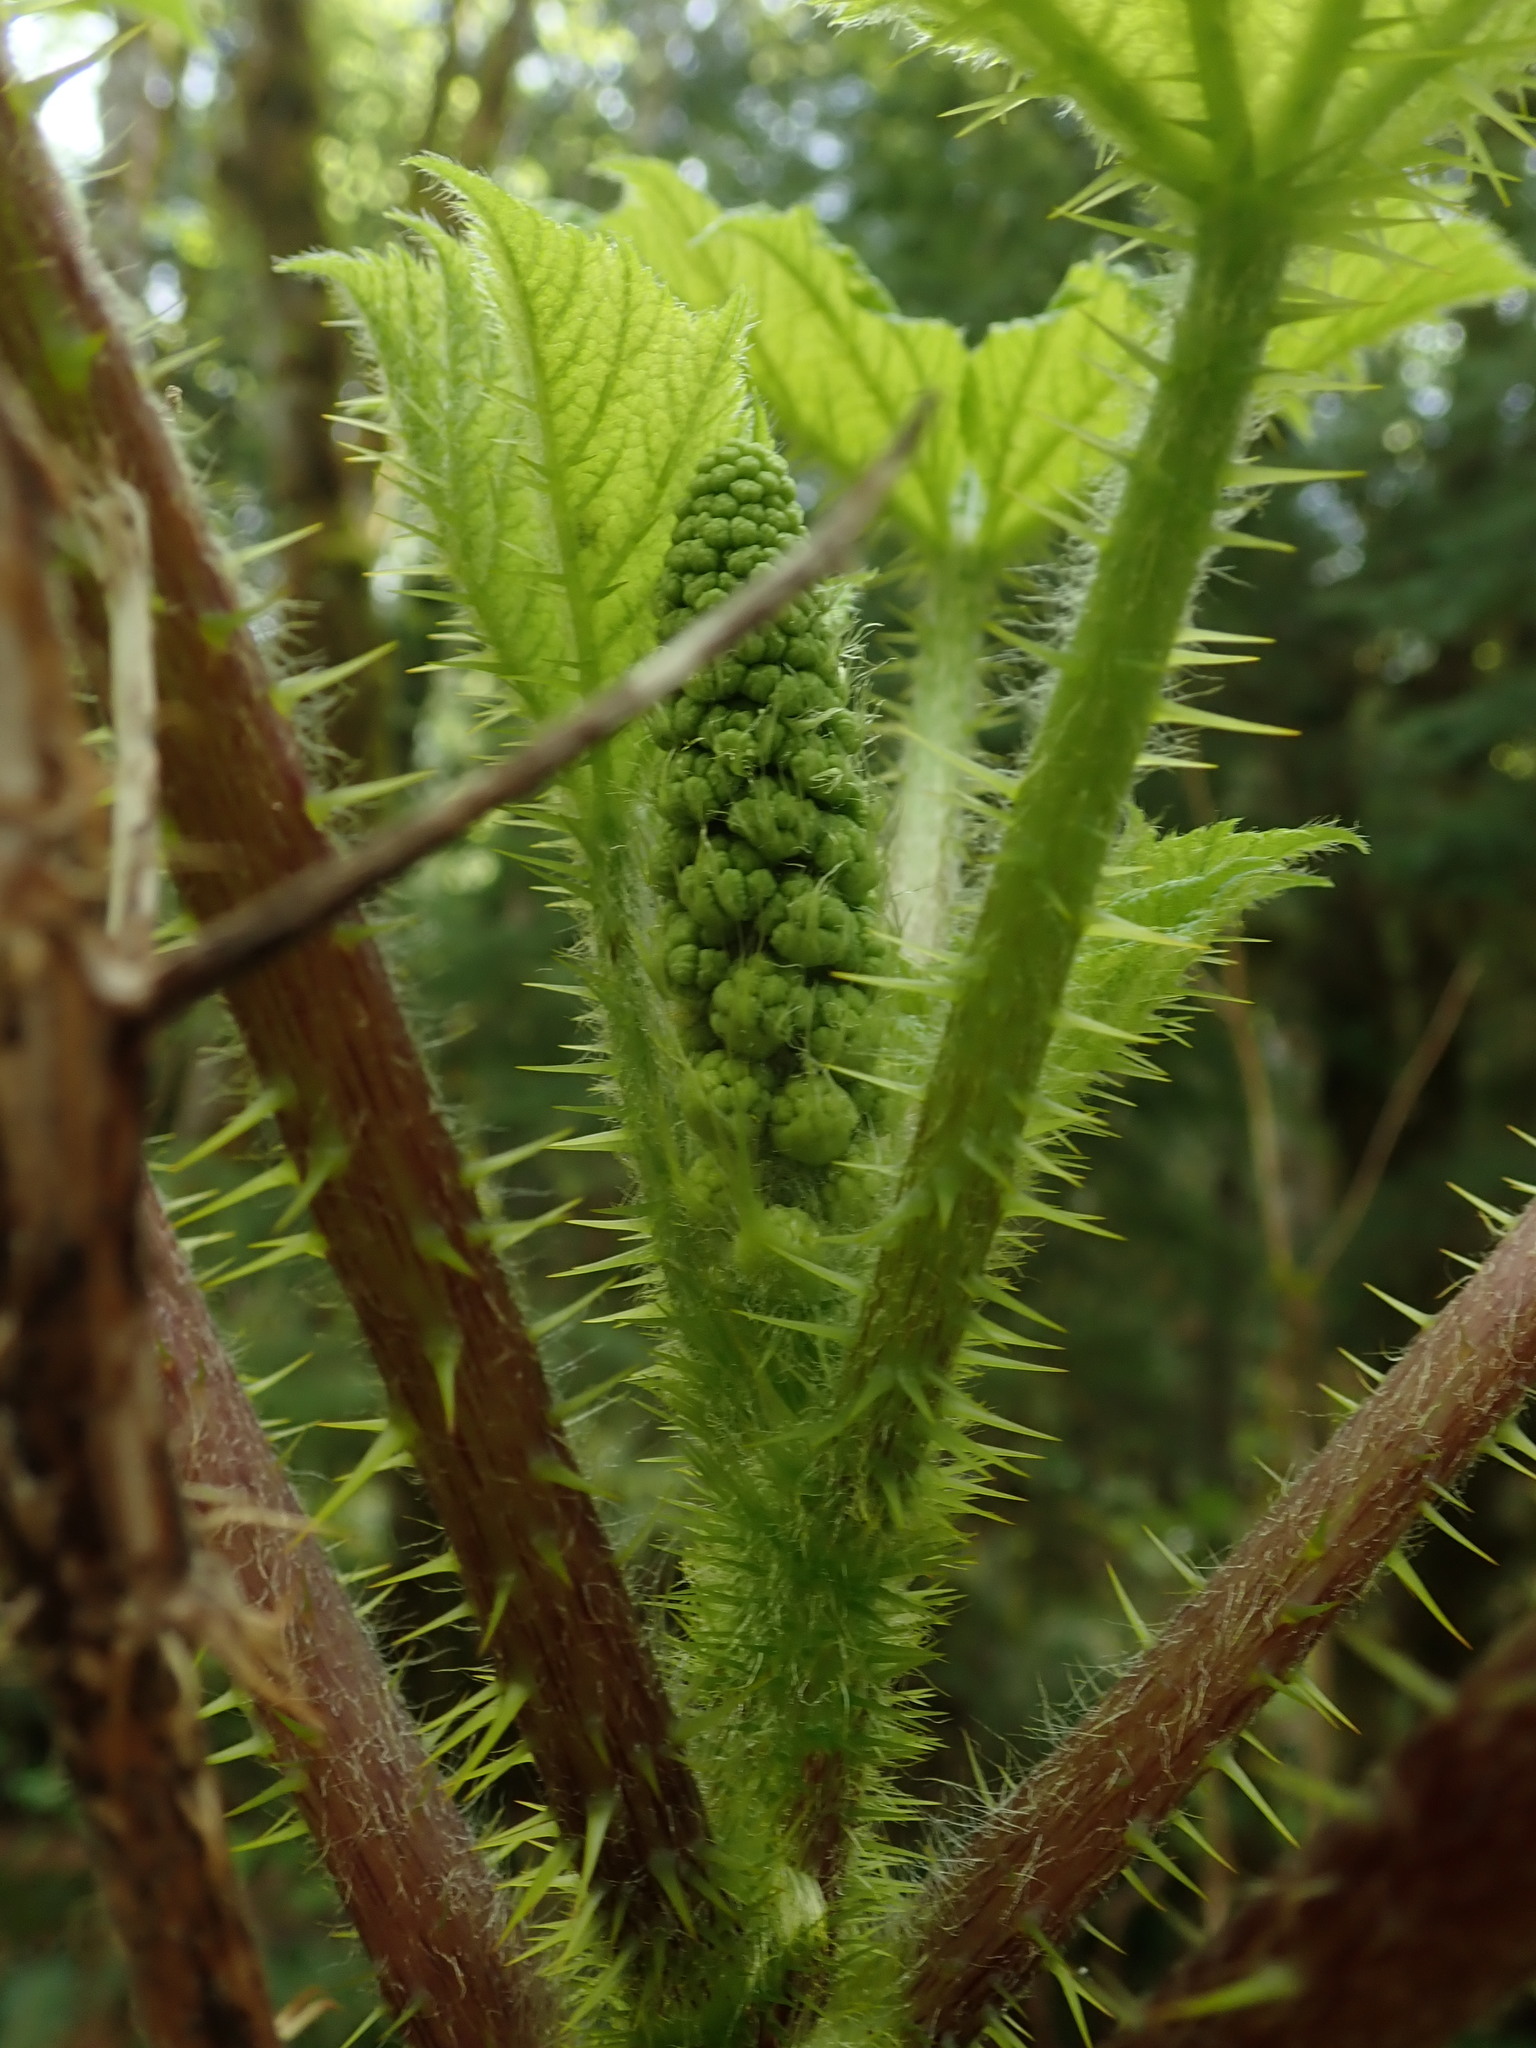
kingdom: Plantae
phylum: Tracheophyta
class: Magnoliopsida
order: Apiales
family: Araliaceae
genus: Oplopanax
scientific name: Oplopanax horridus
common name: Devil's walking-stick
